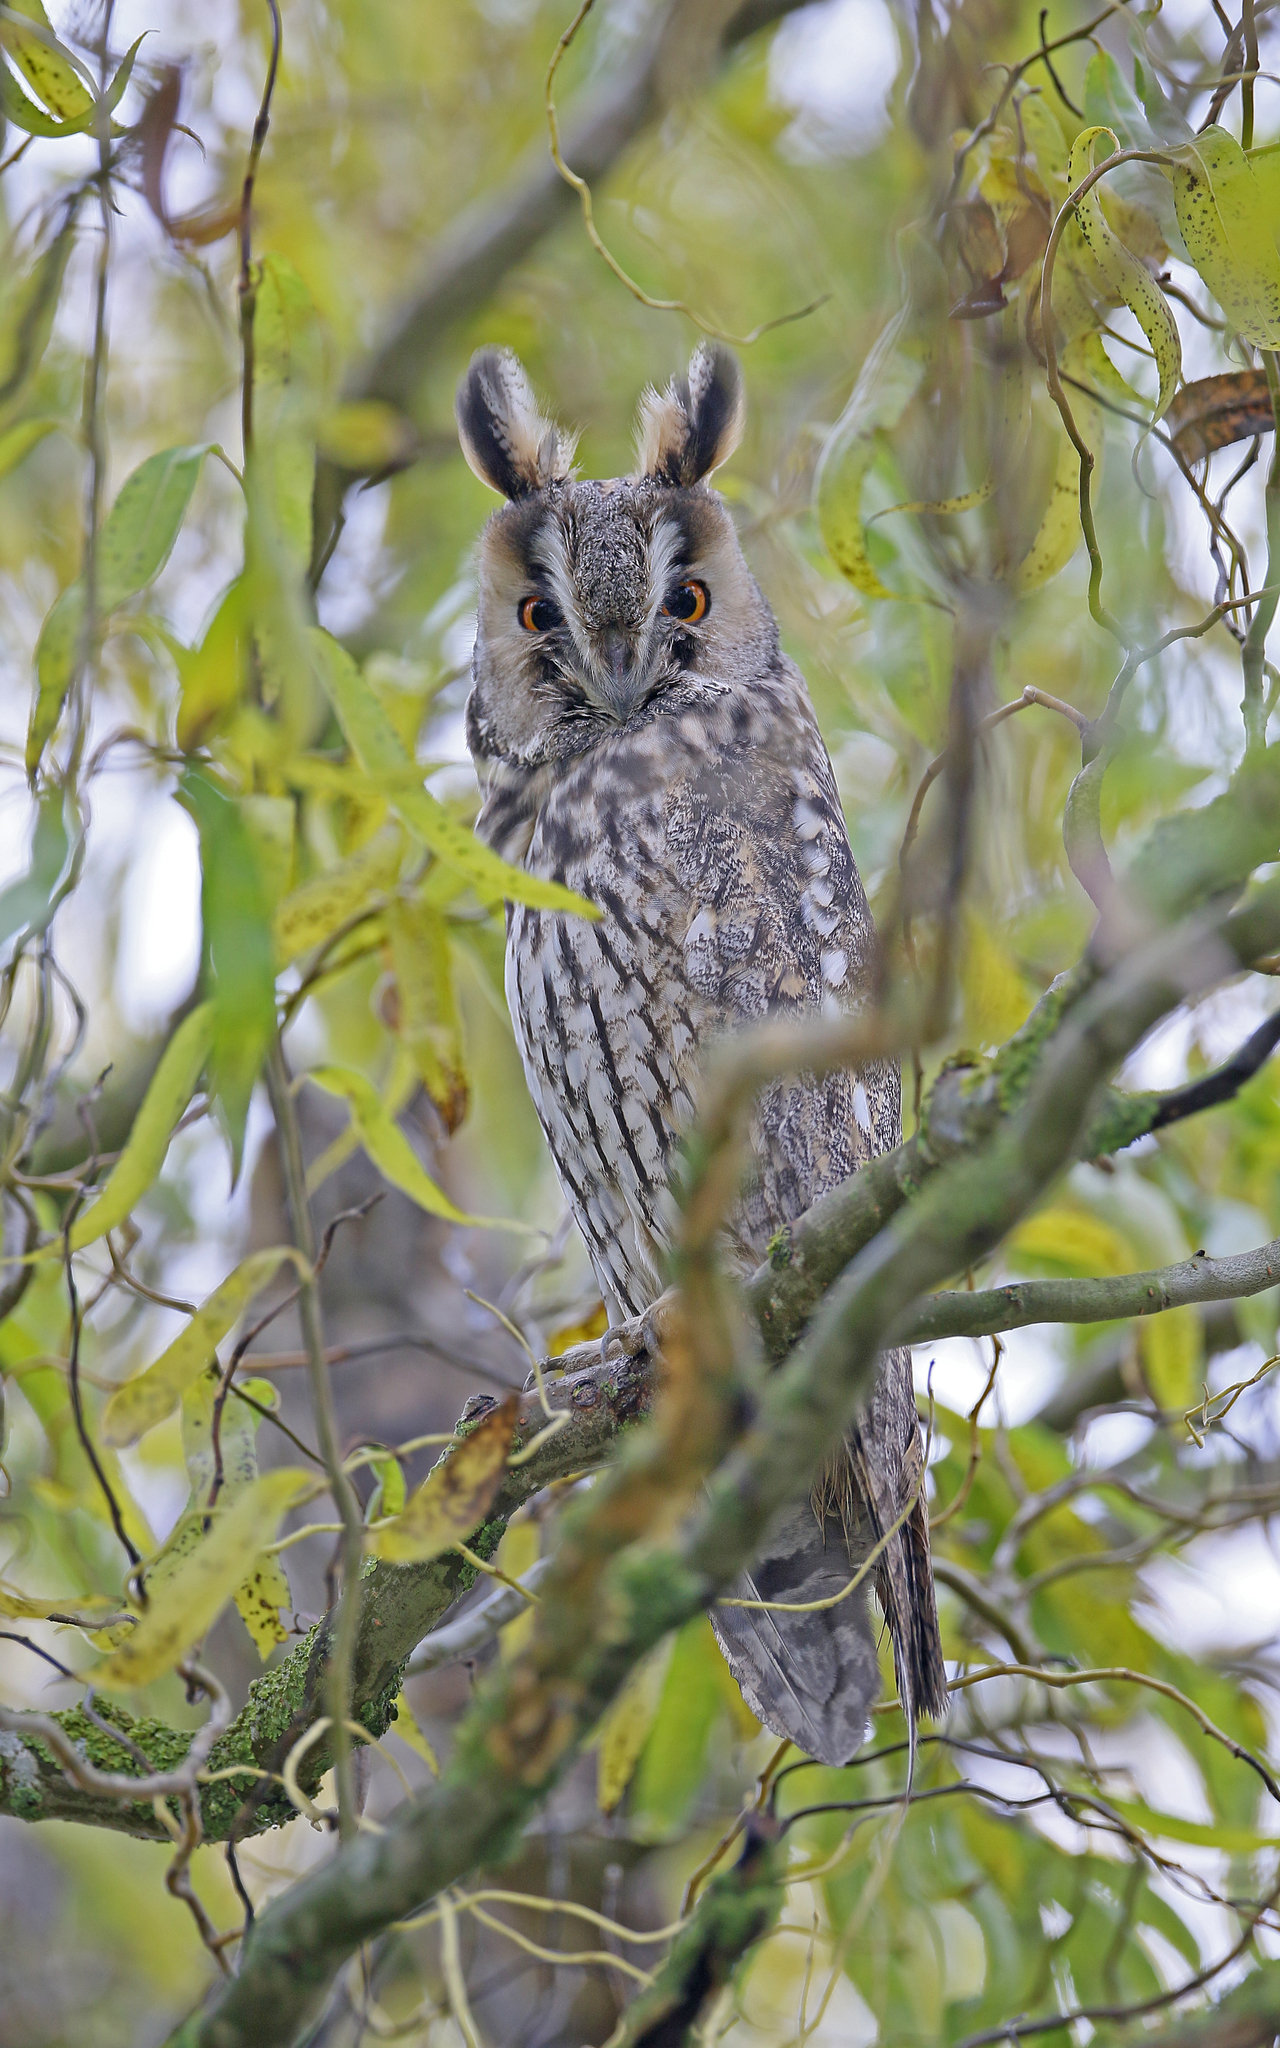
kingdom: Animalia
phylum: Chordata
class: Aves
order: Strigiformes
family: Strigidae
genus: Asio
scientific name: Asio otus
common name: Long-eared owl
